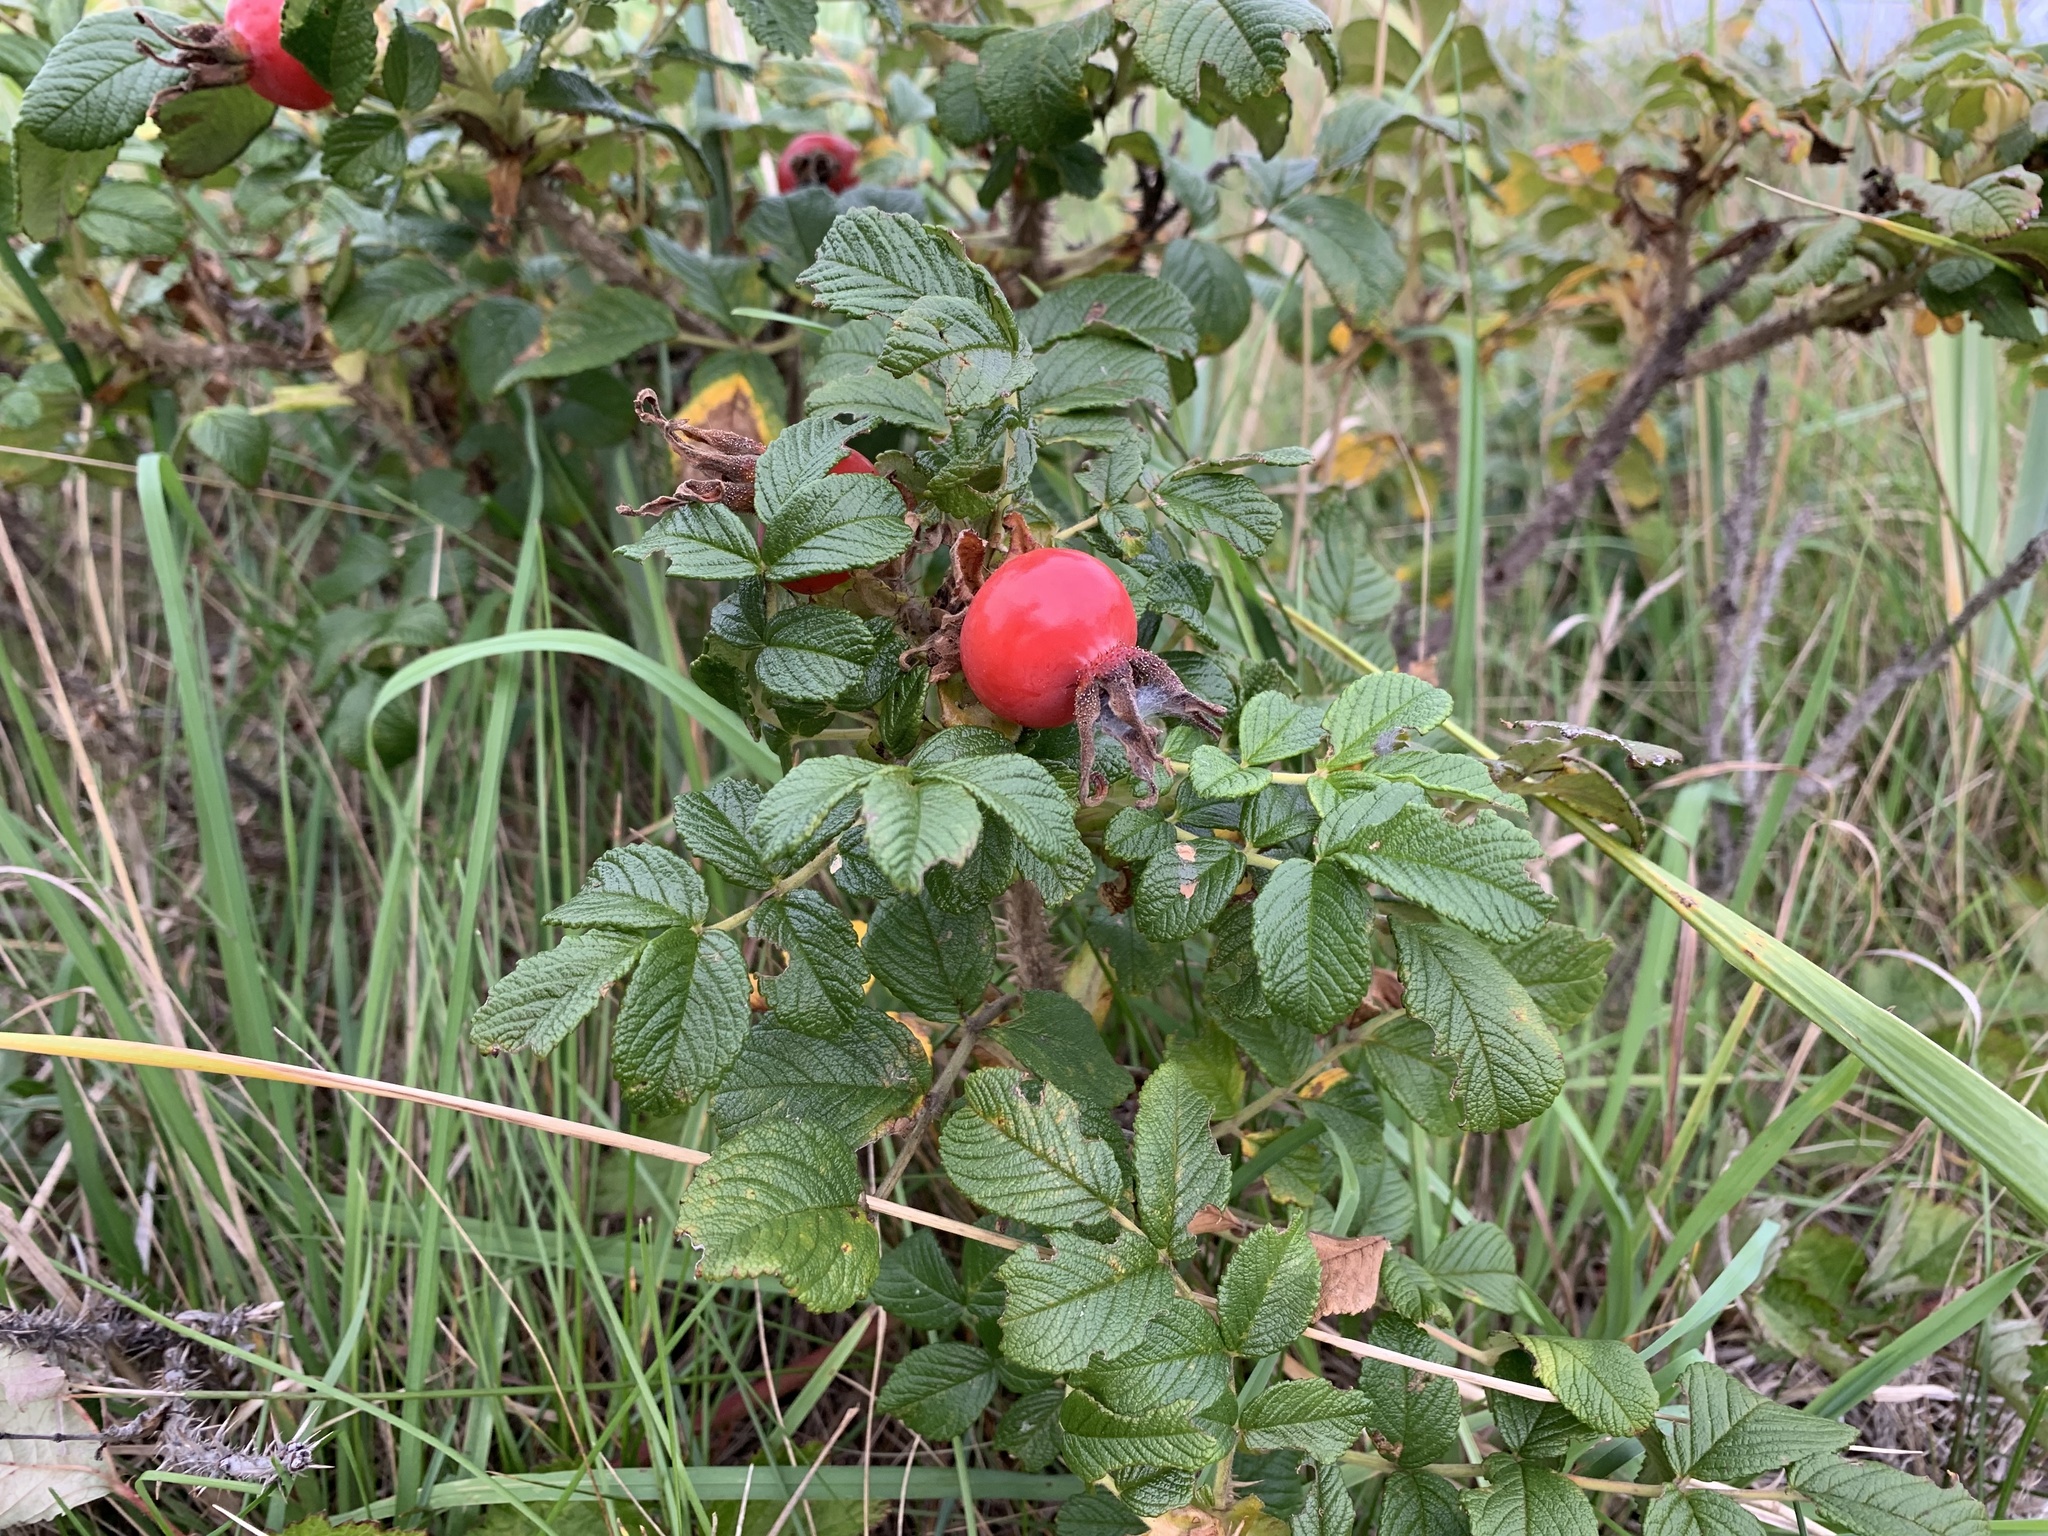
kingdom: Plantae
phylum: Tracheophyta
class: Magnoliopsida
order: Rosales
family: Rosaceae
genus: Rosa
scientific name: Rosa rugosa
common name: Japanese rose
